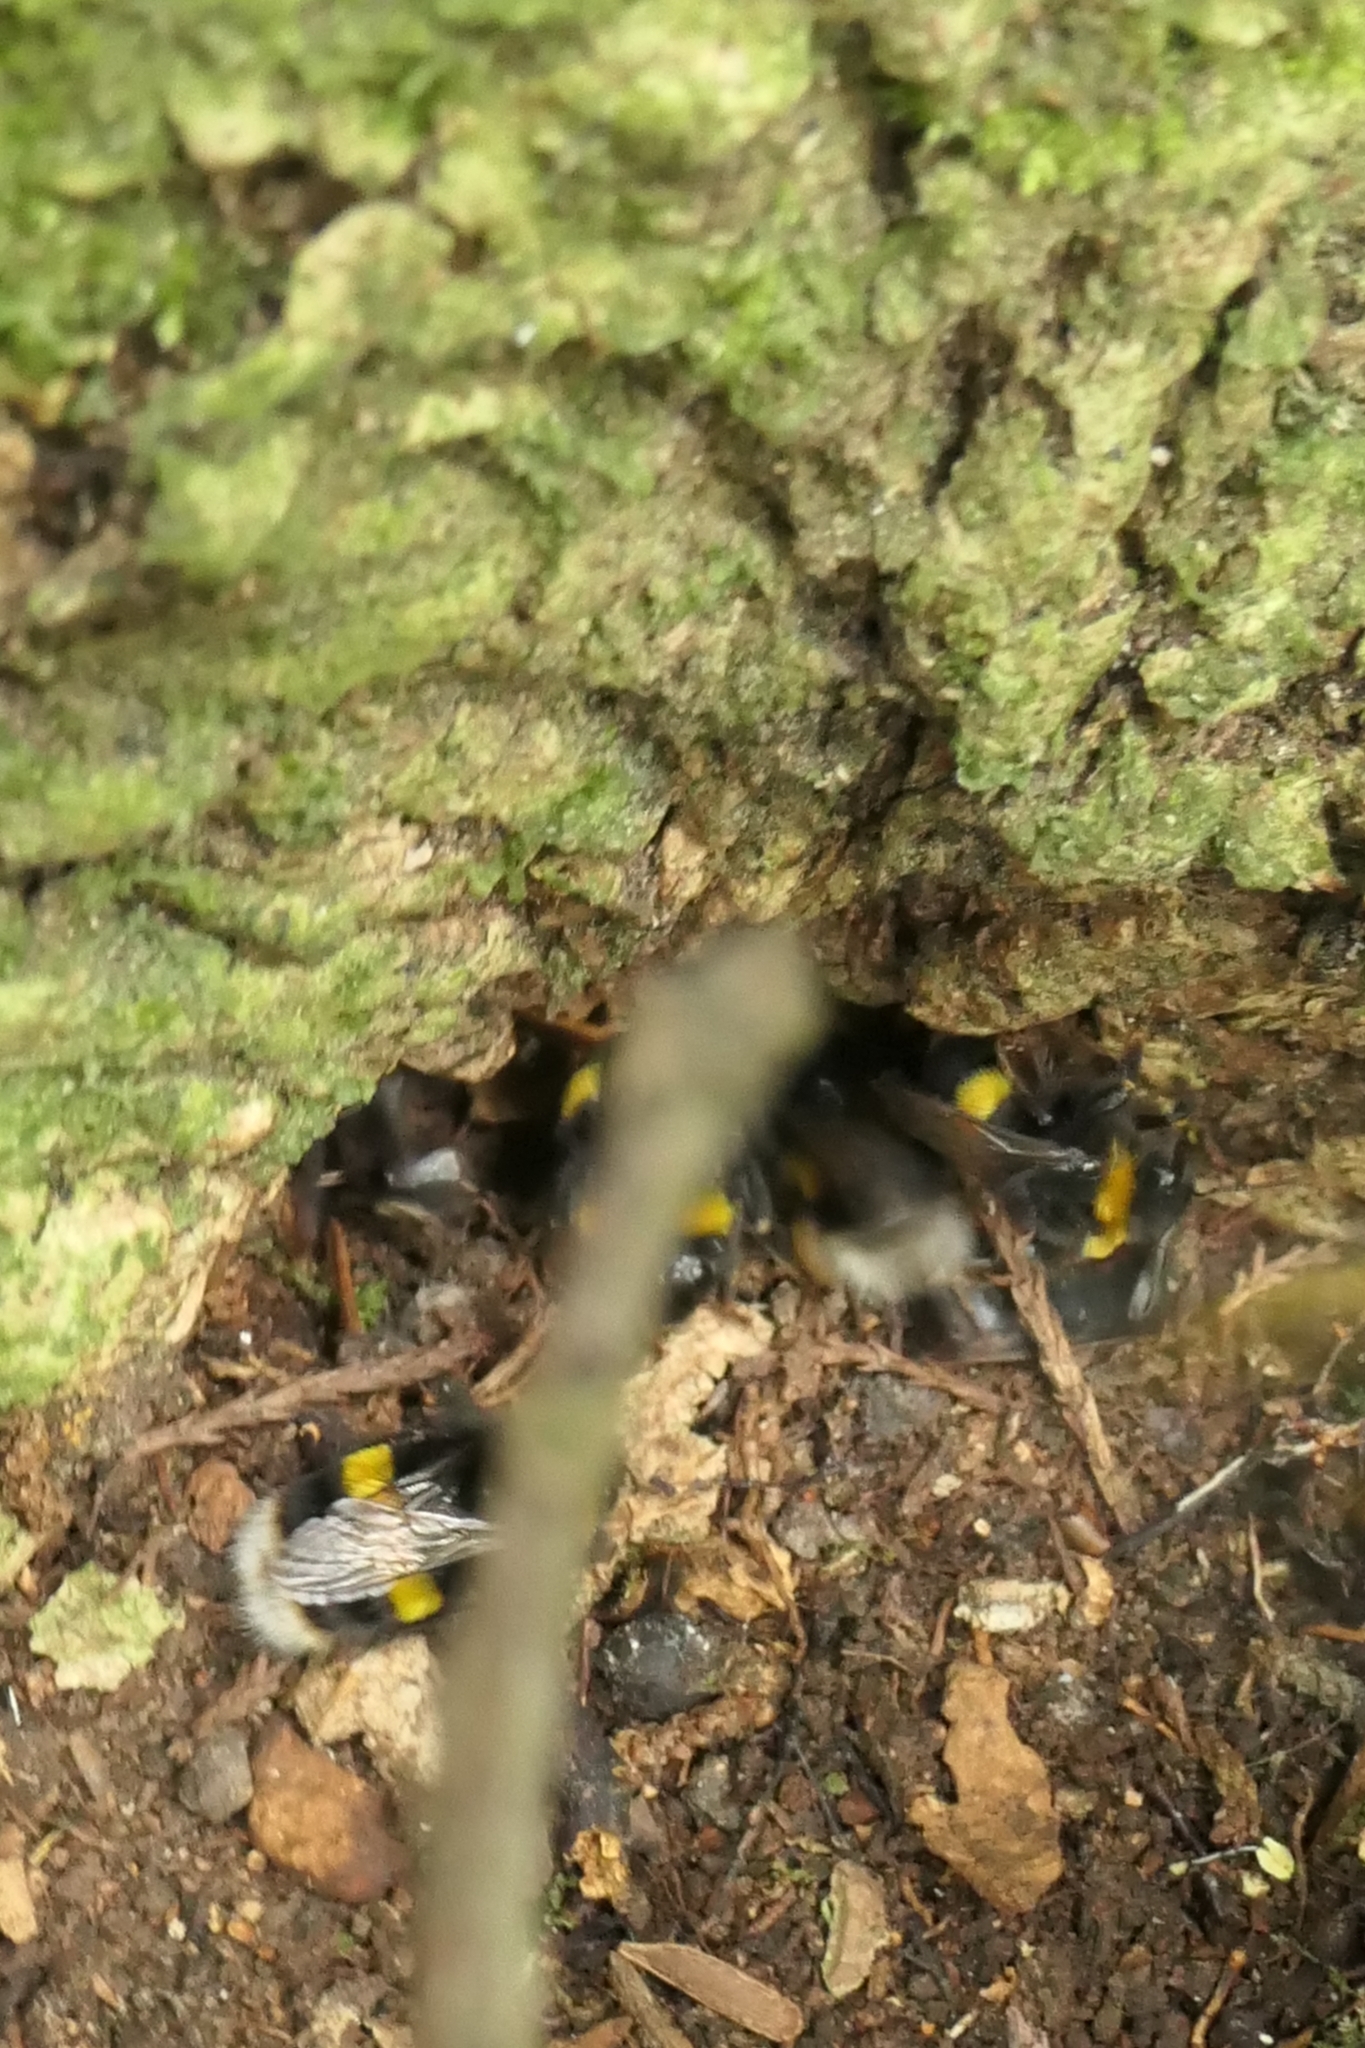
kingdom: Animalia
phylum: Arthropoda
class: Insecta
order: Hymenoptera
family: Apidae
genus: Bombus
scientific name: Bombus terrestris
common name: Buff-tailed bumblebee
